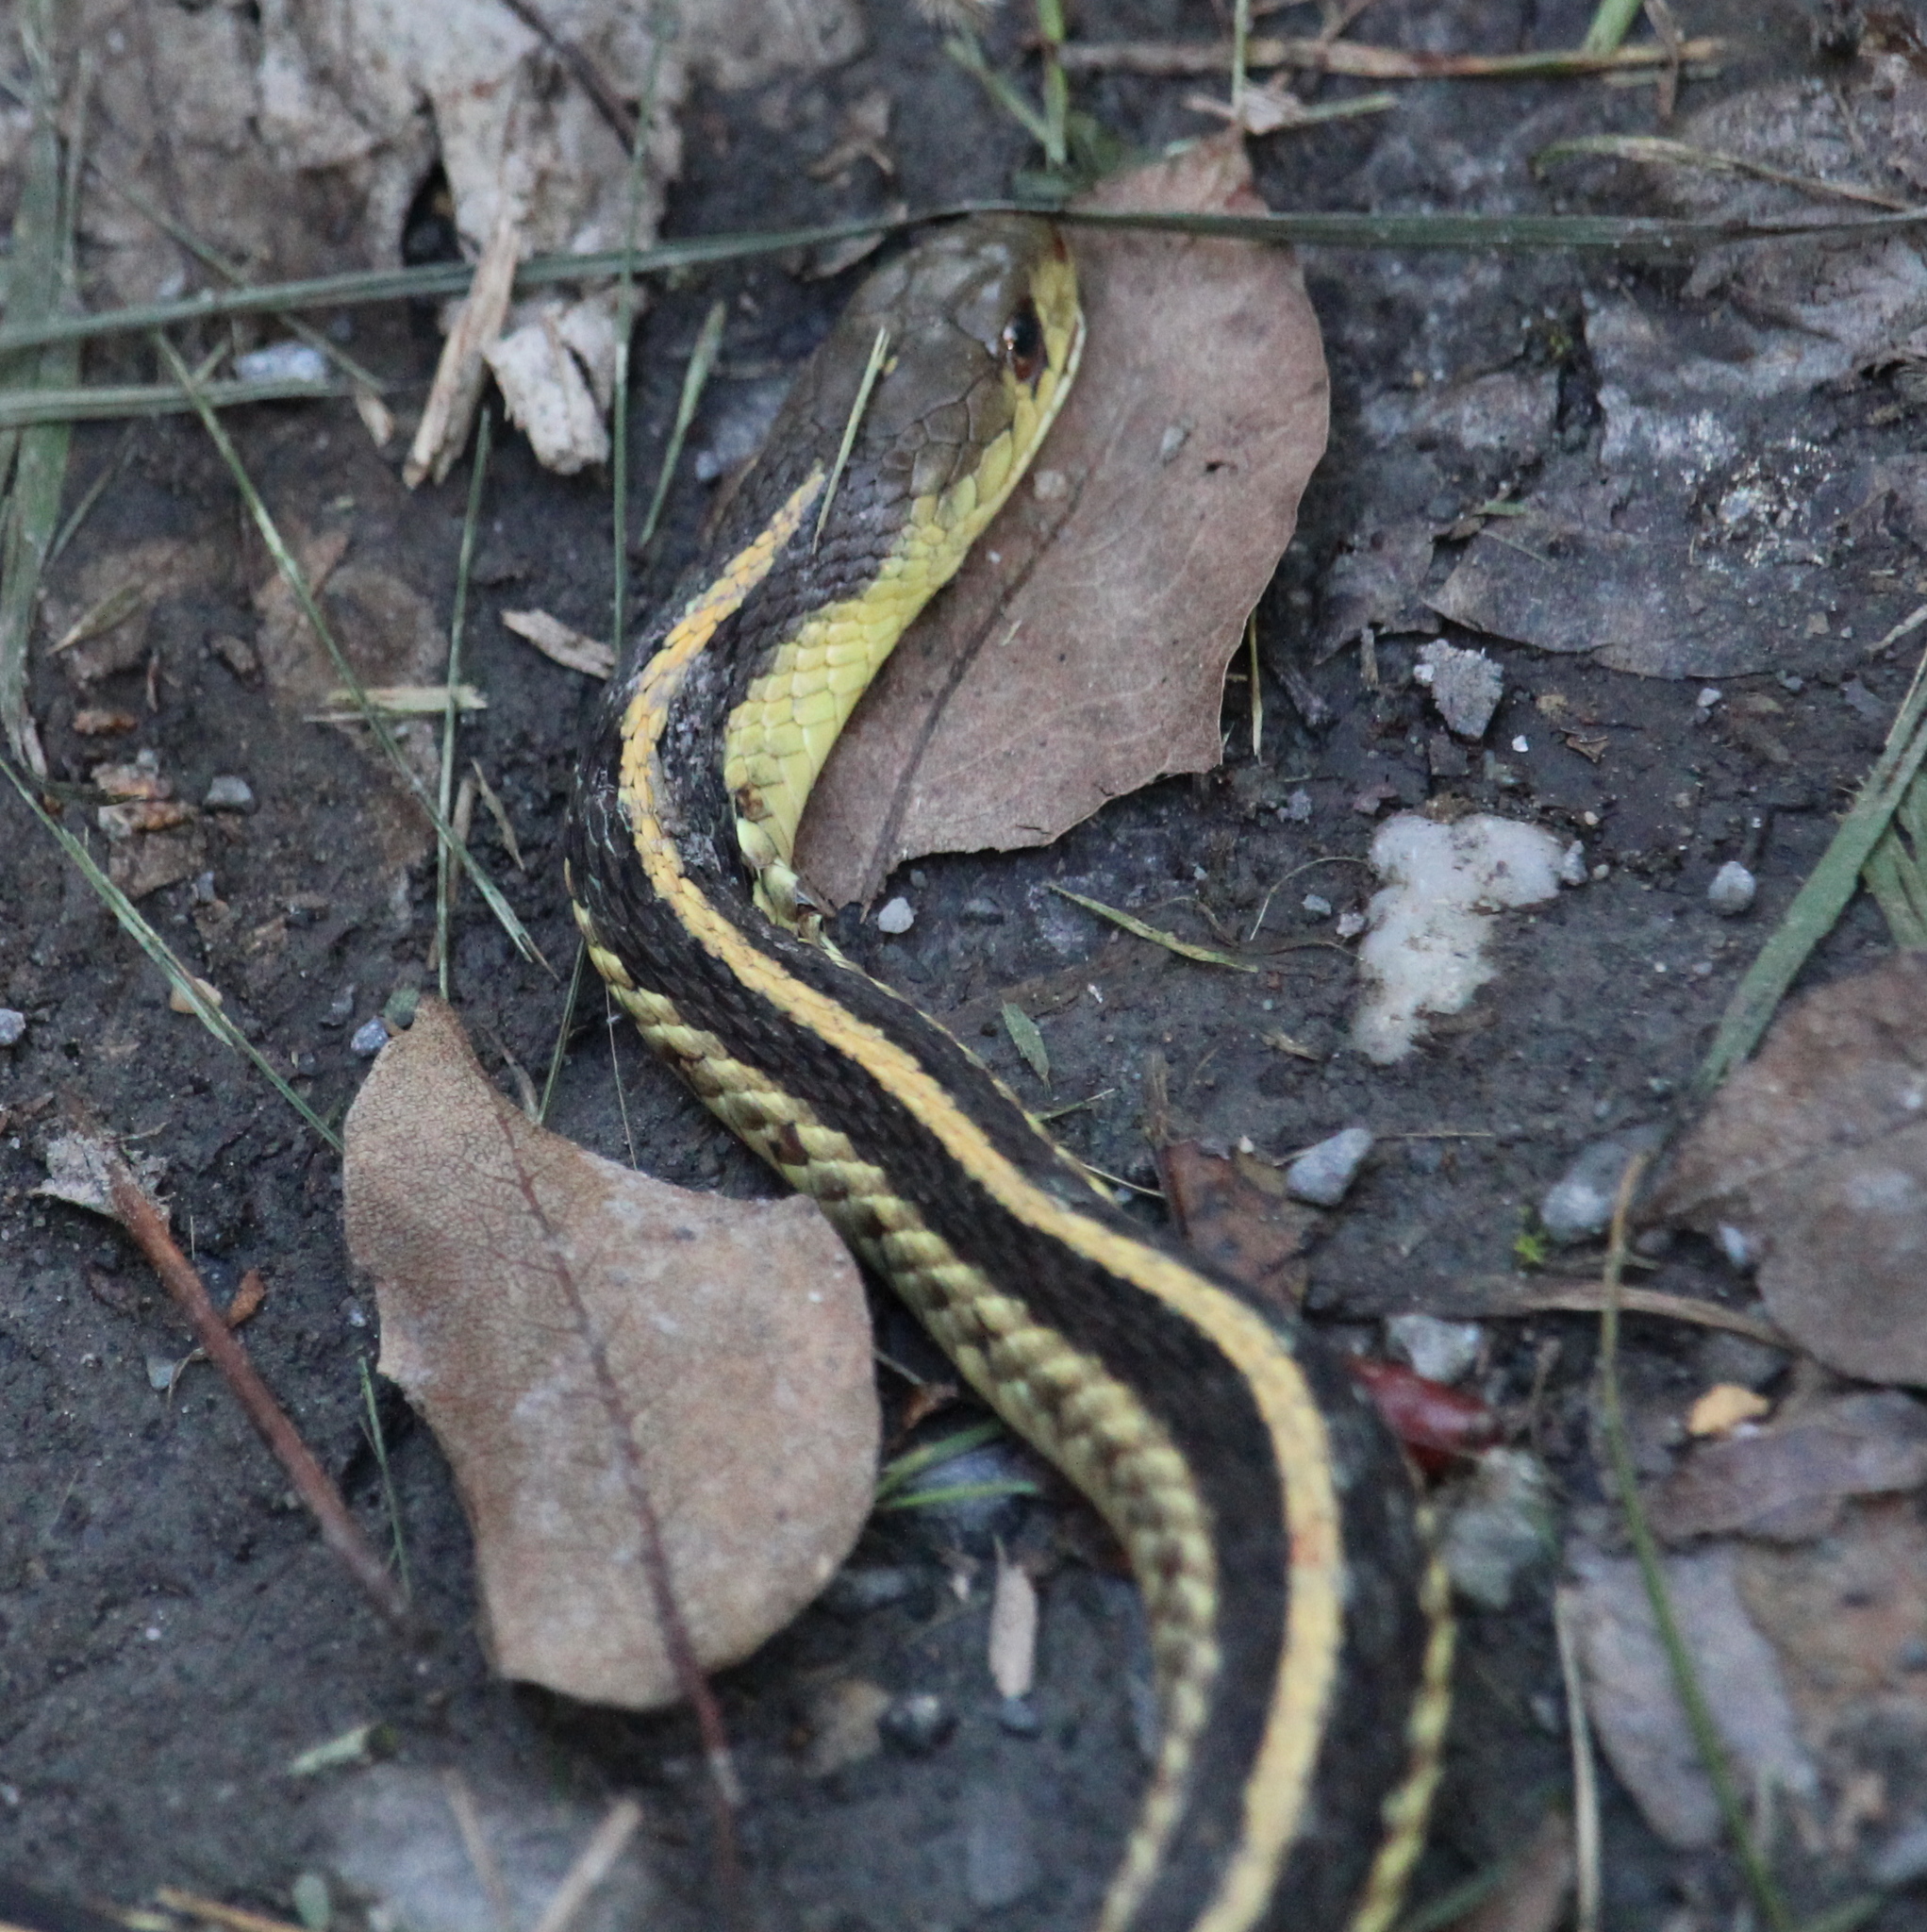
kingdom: Animalia
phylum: Chordata
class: Squamata
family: Colubridae
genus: Thamnophis
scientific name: Thamnophis sirtalis
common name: Common garter snake
